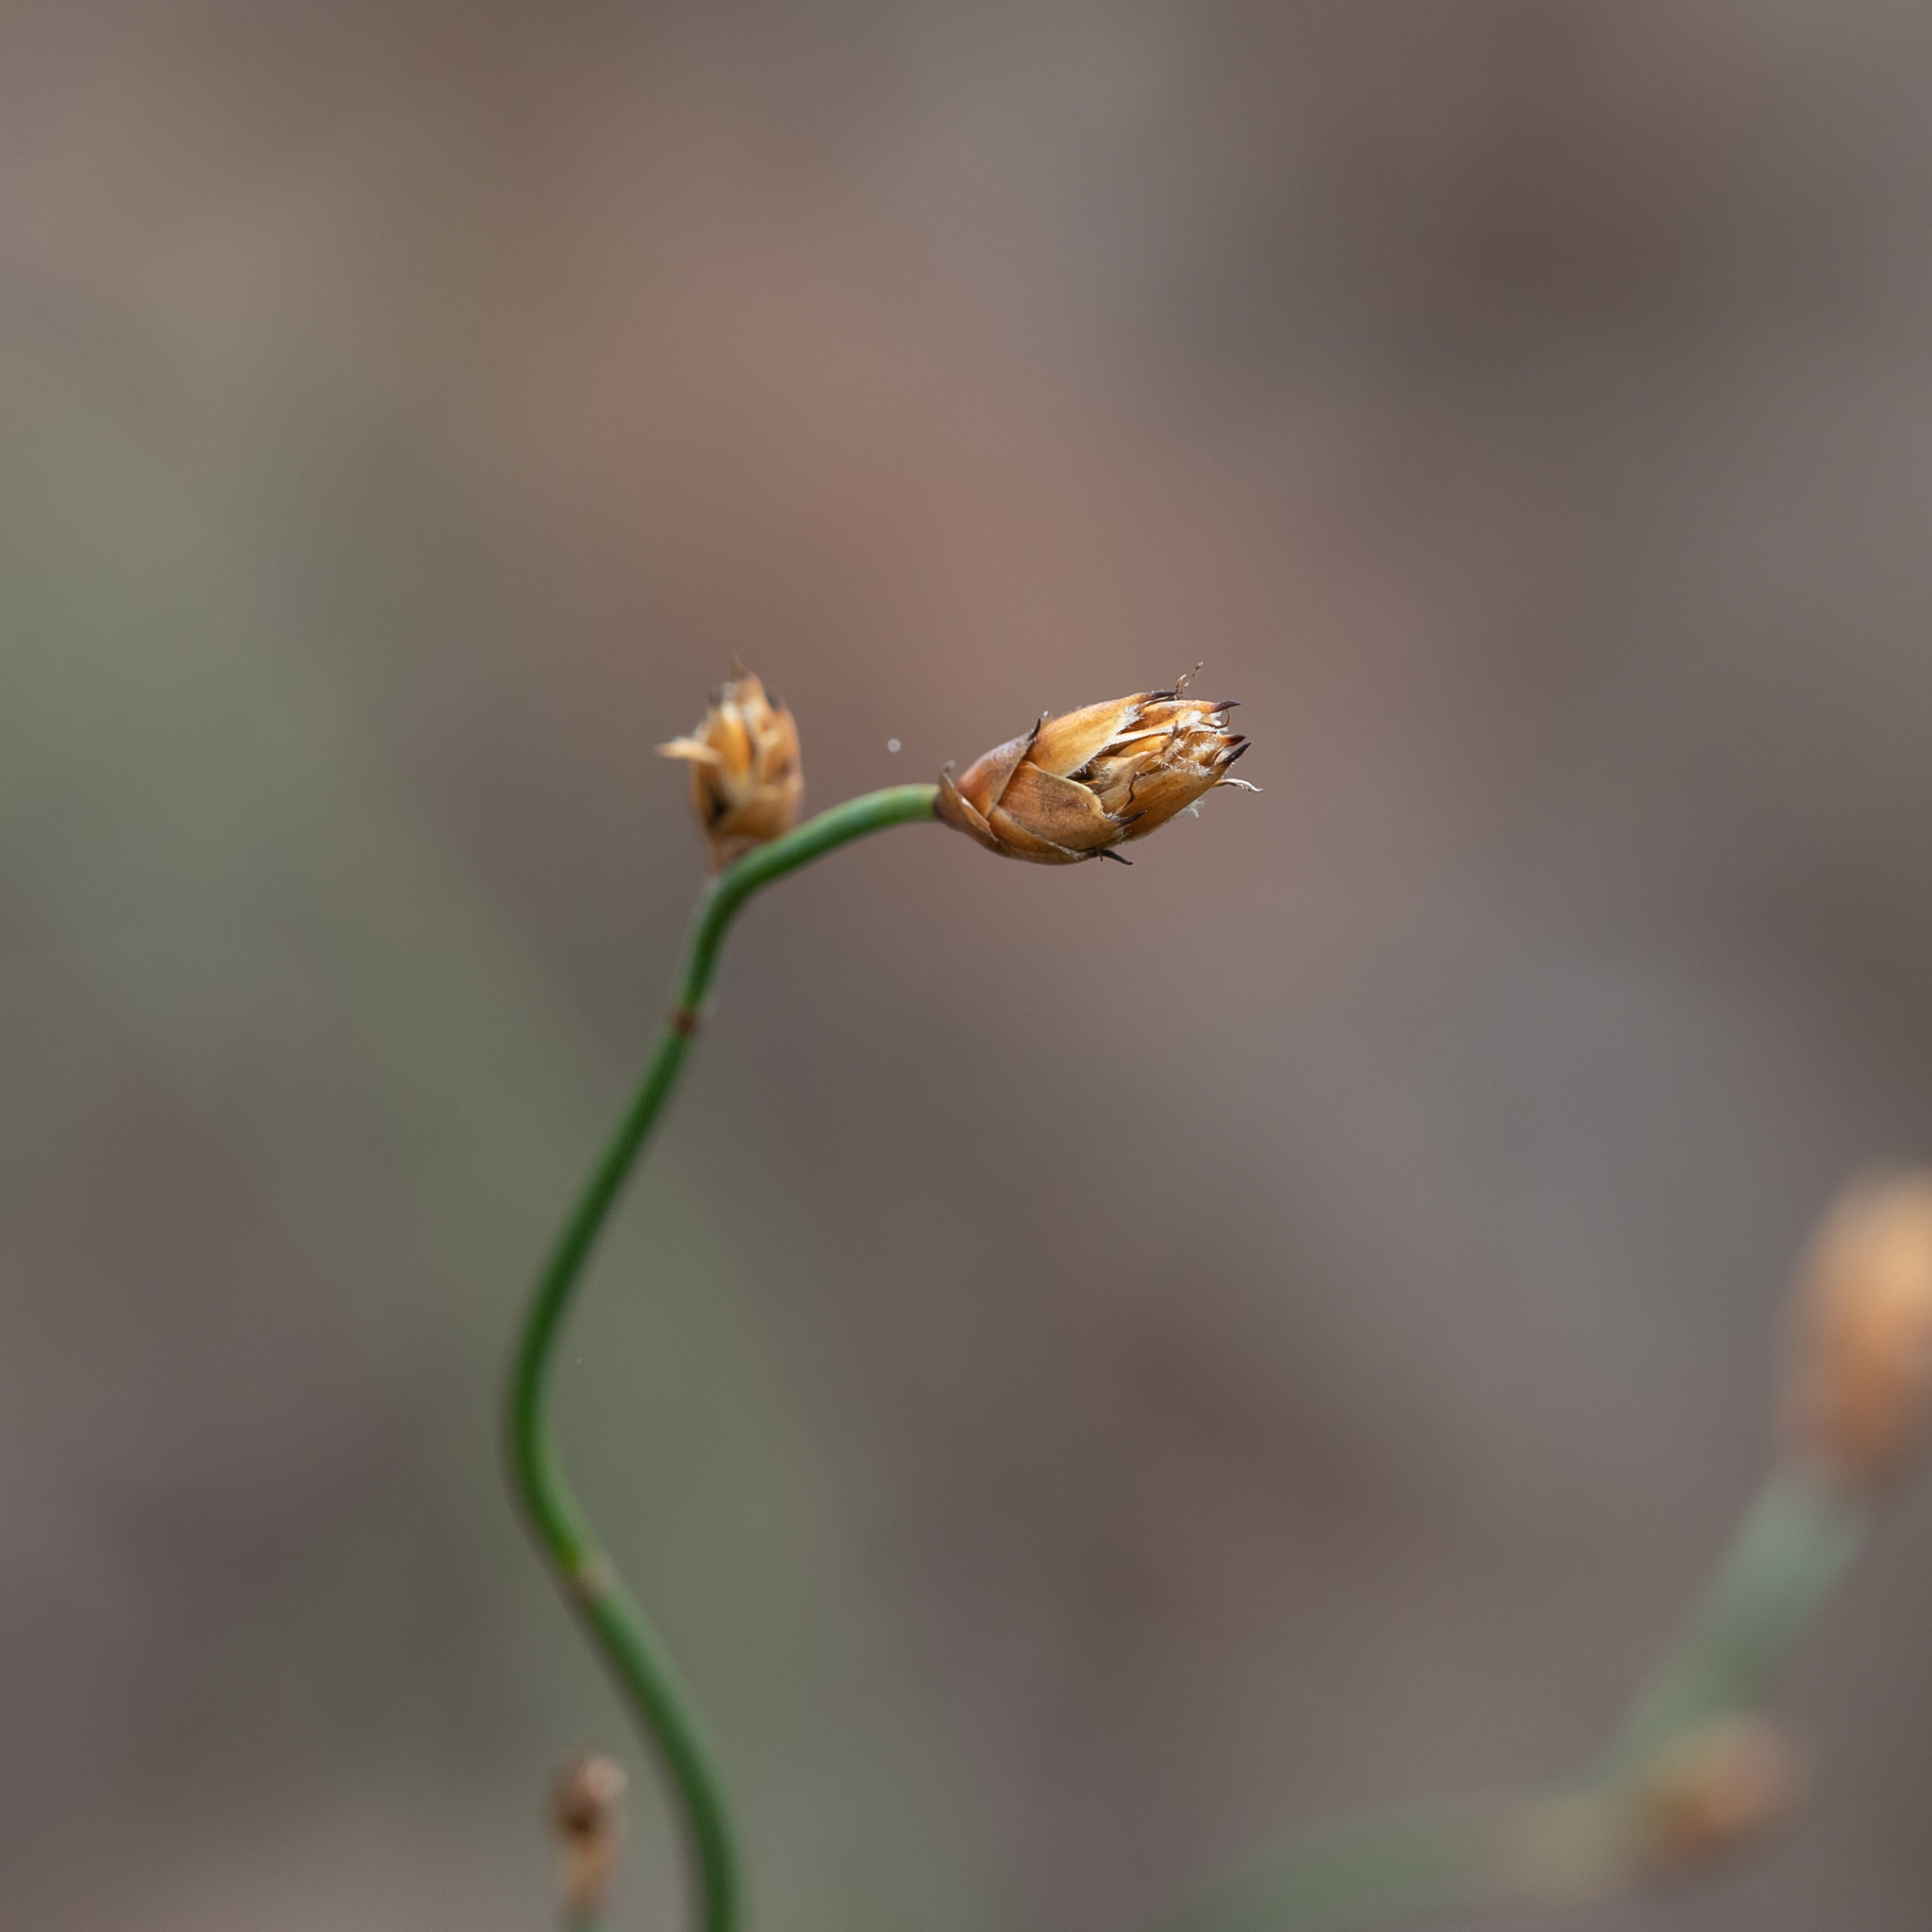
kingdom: Plantae
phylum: Tracheophyta
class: Liliopsida
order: Poales
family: Restionaceae
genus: Lepidobolus
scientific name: Lepidobolus drapetocoleus
